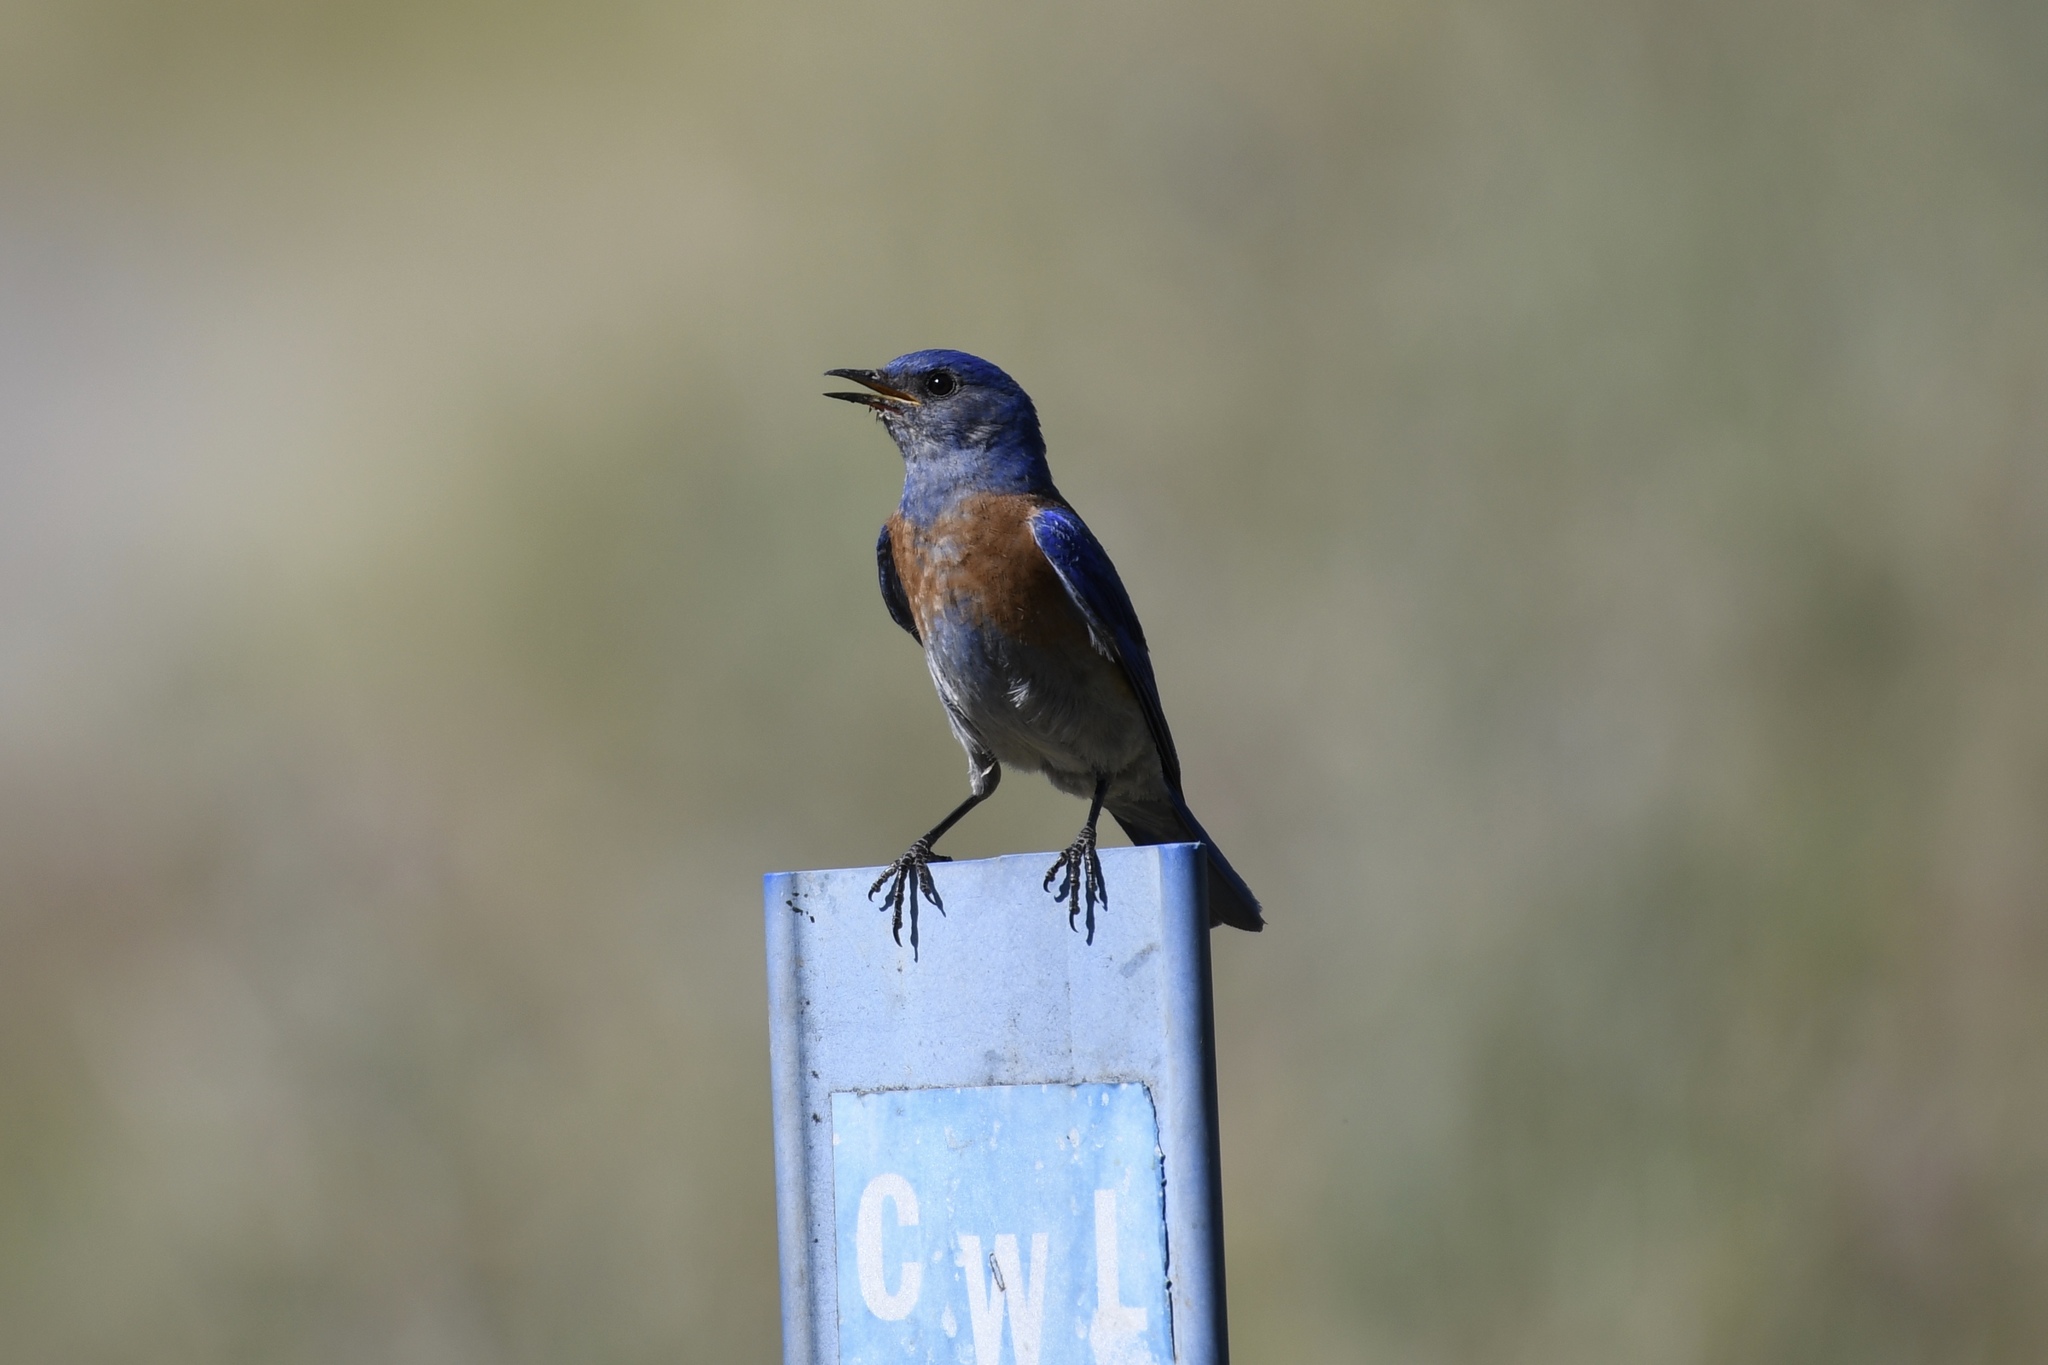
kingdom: Animalia
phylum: Chordata
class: Aves
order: Passeriformes
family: Turdidae
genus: Sialia
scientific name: Sialia mexicana
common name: Western bluebird
